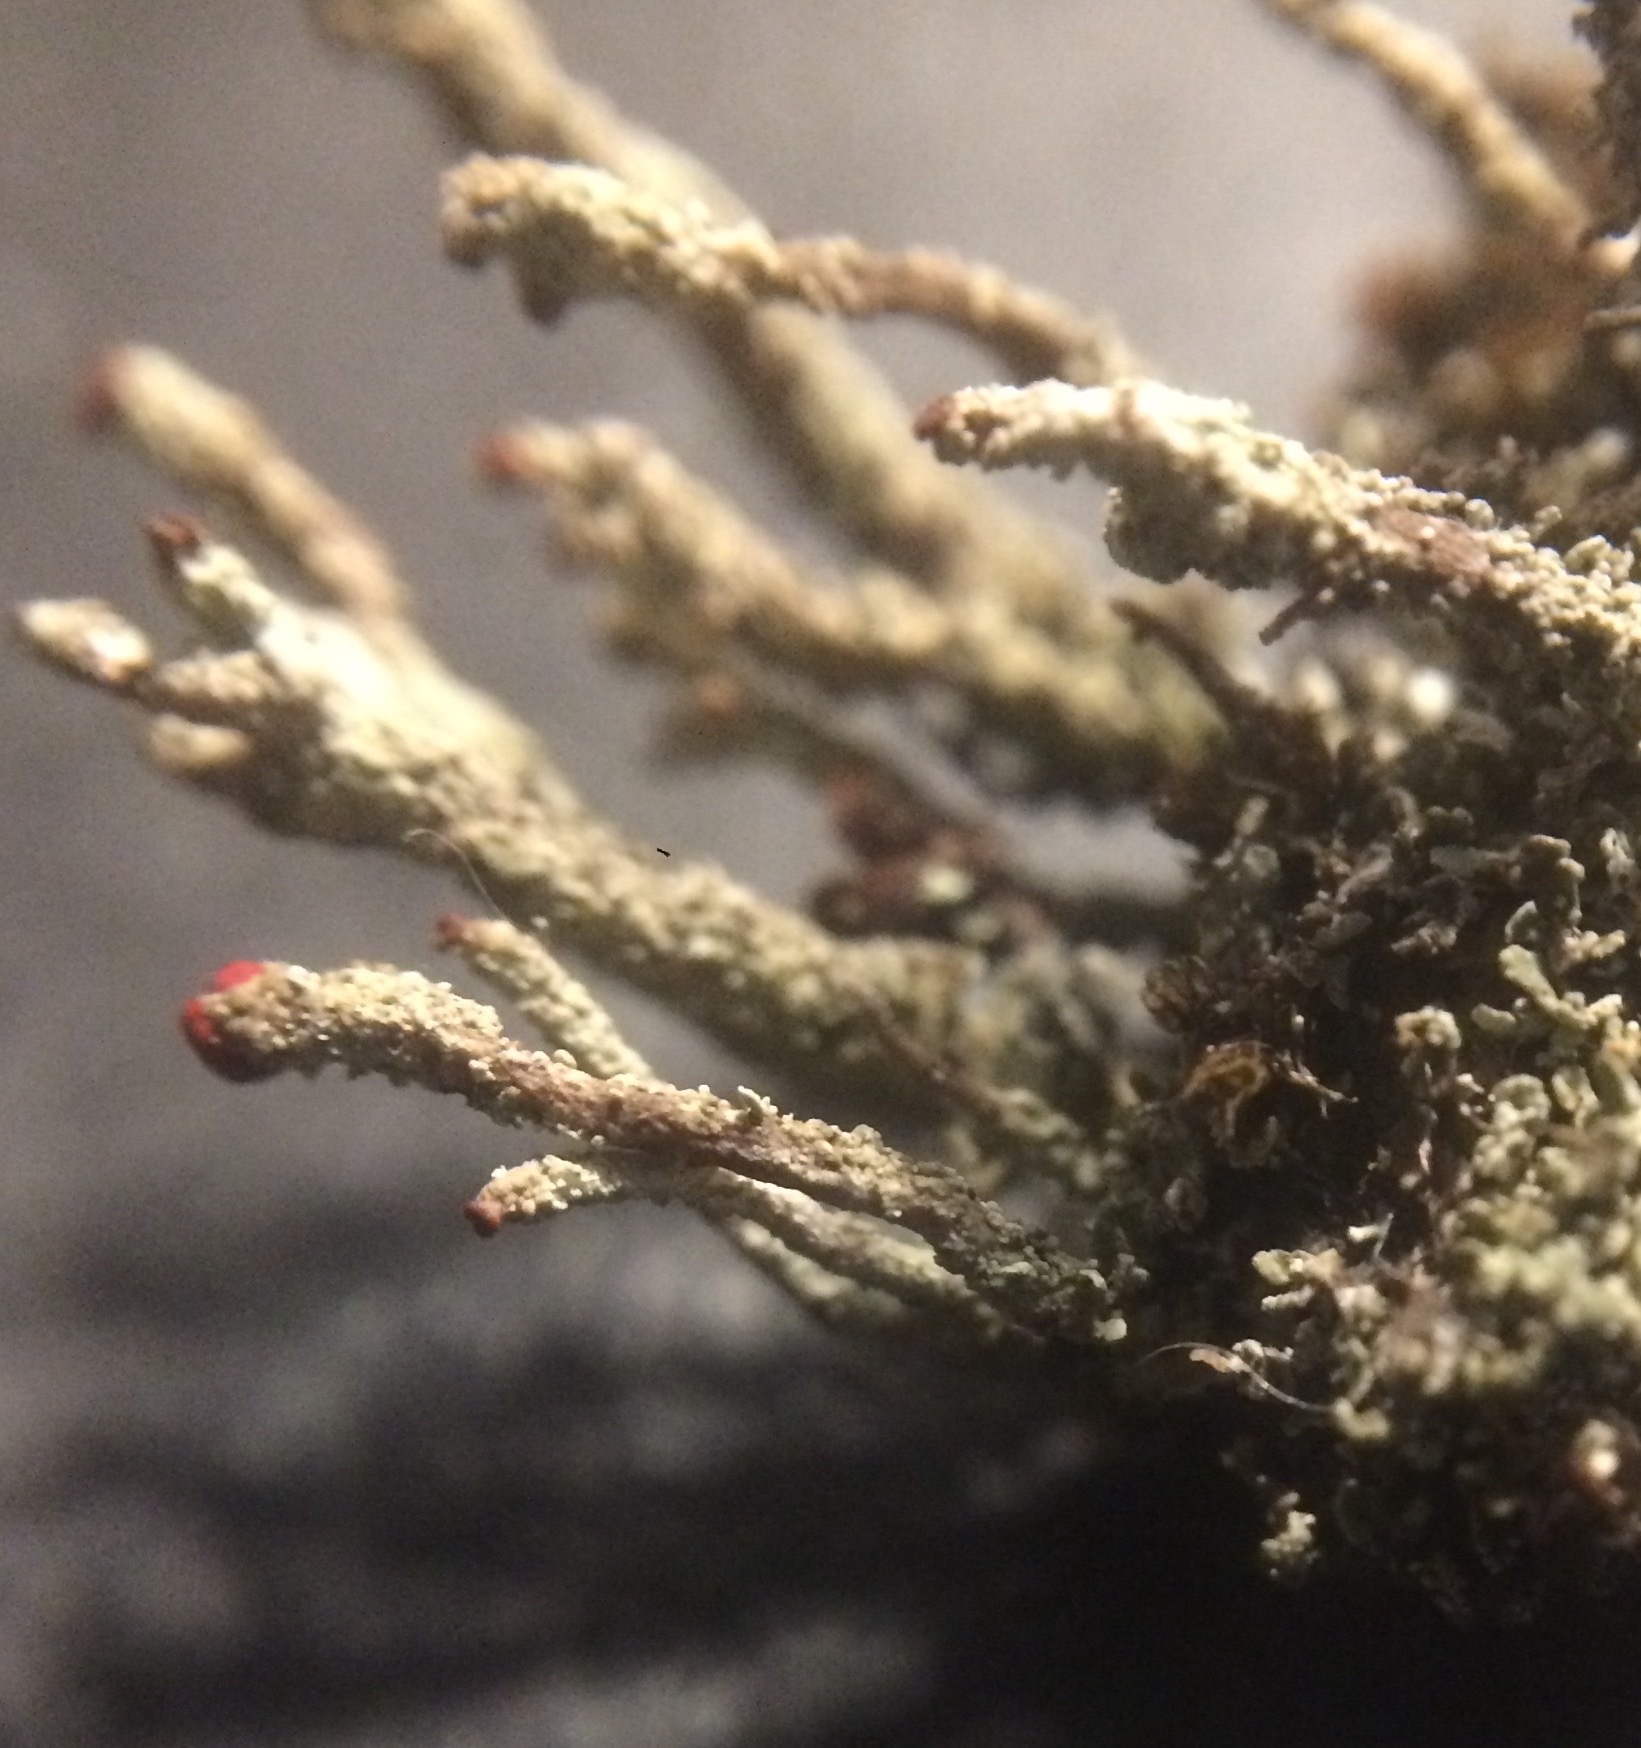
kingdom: Fungi
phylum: Ascomycota
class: Lecanoromycetes
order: Lecanorales
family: Cladoniaceae
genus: Cladonia
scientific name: Cladonia floerkeana
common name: Gritty british soldiers lichen
